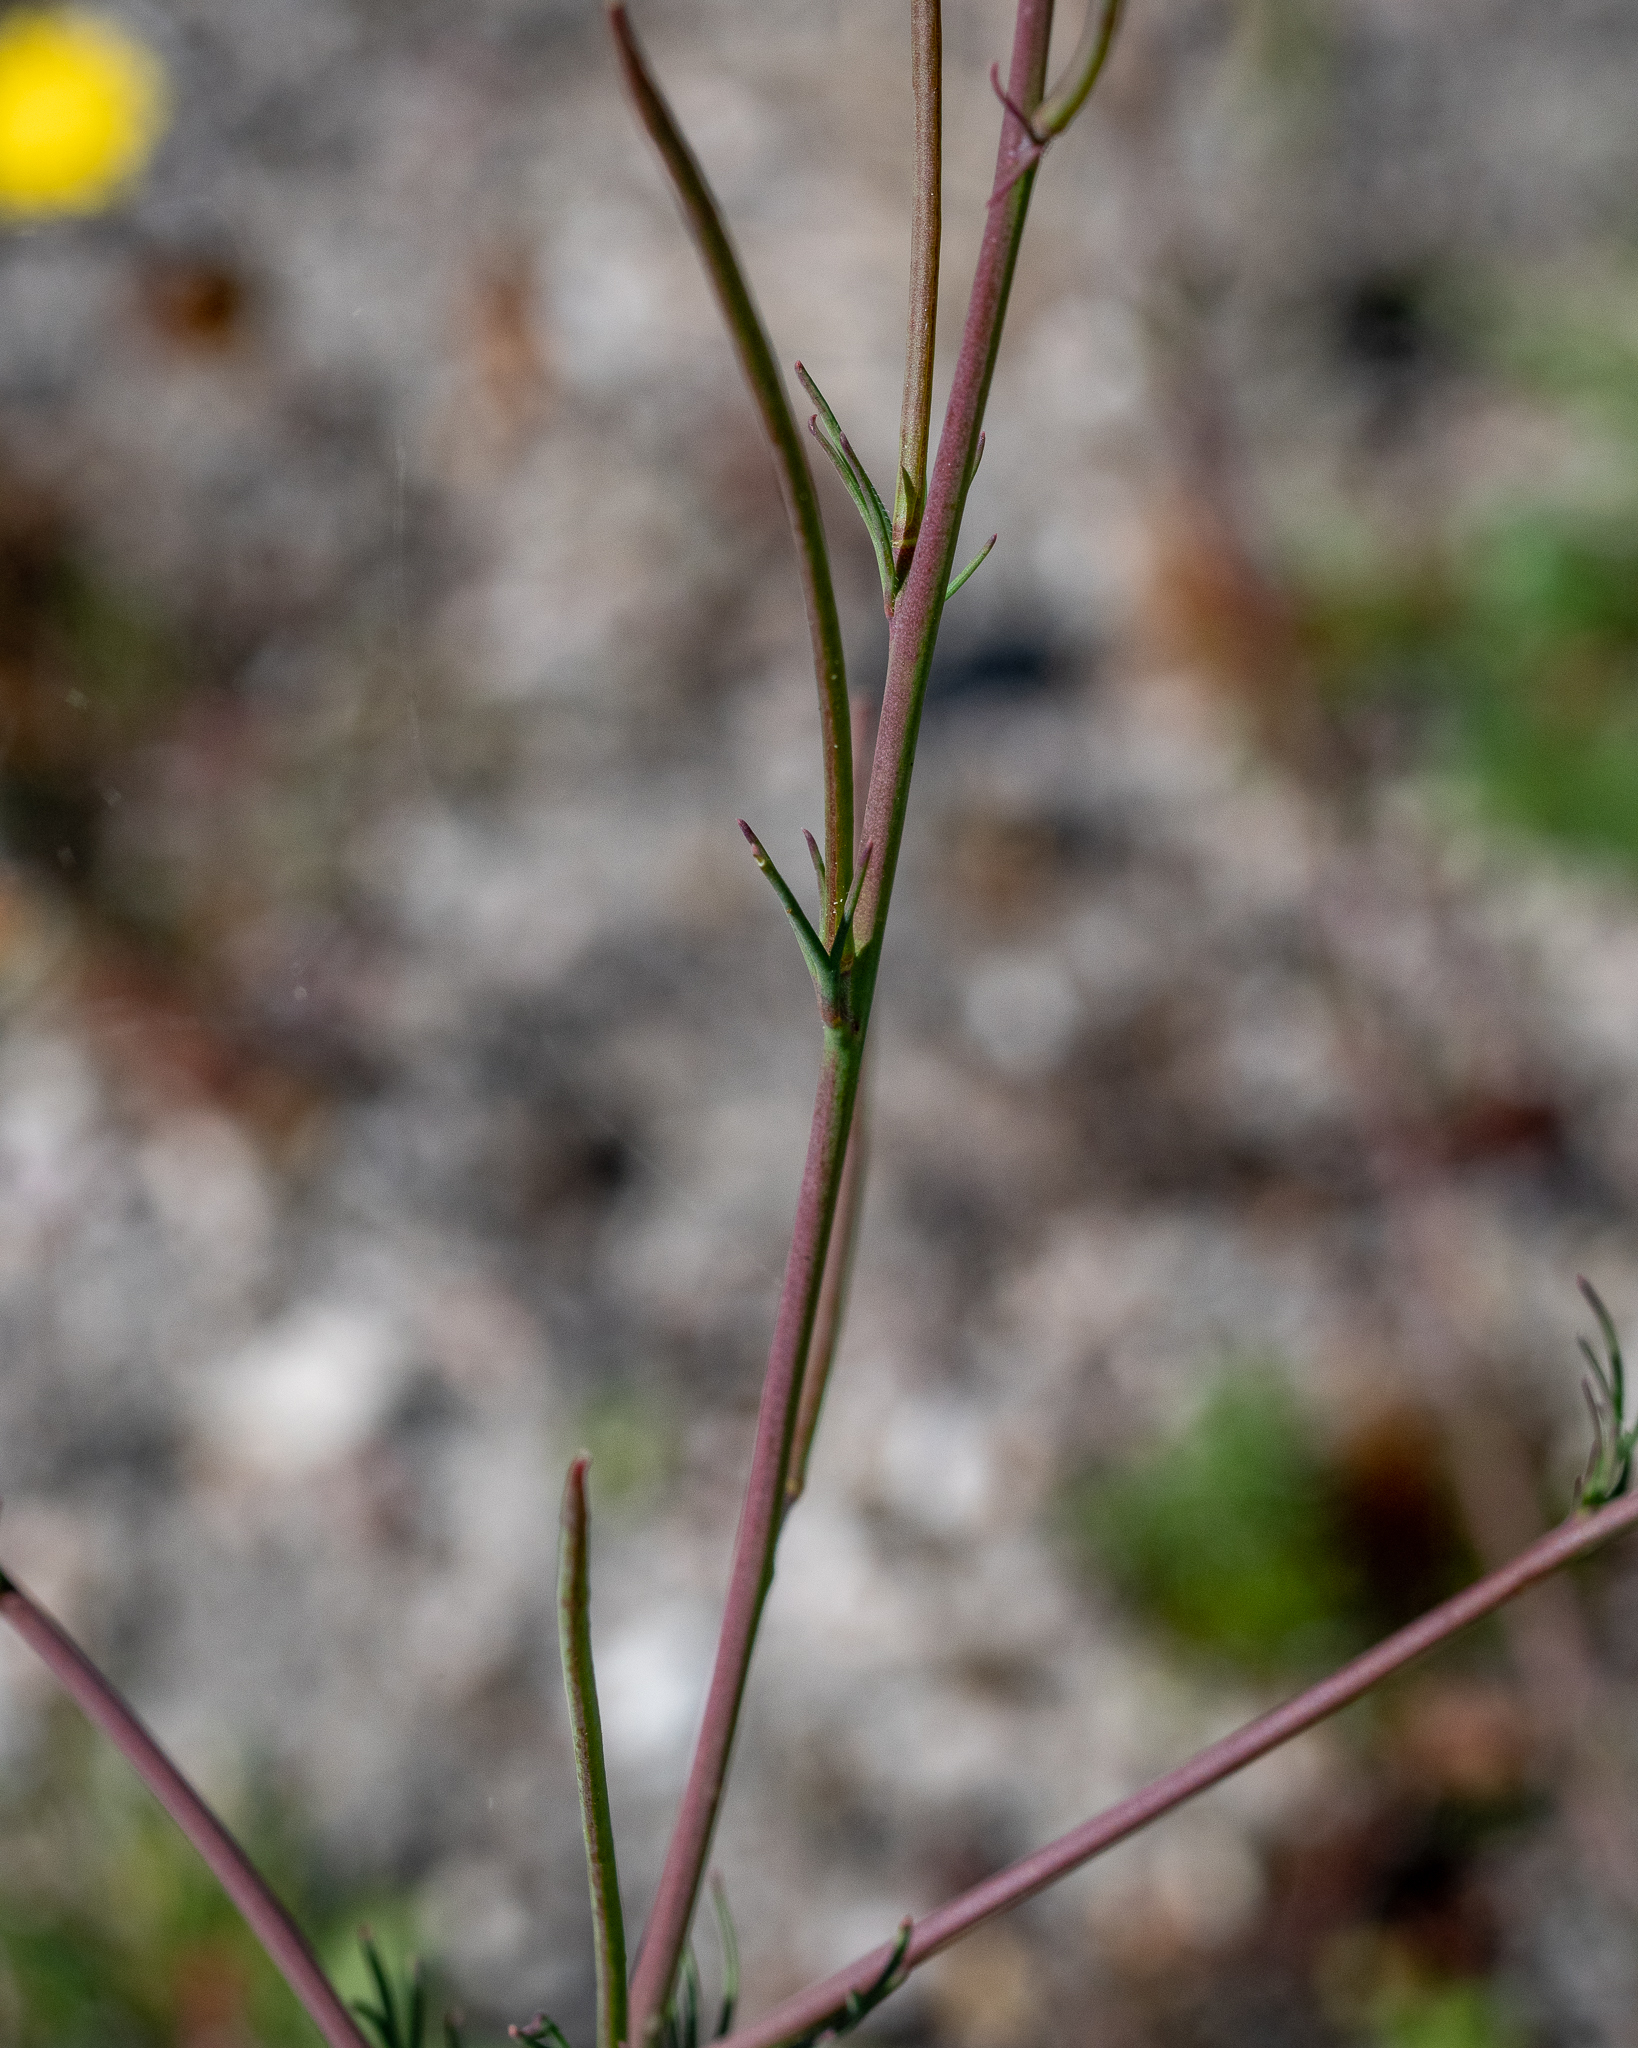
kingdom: Plantae
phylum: Tracheophyta
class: Magnoliopsida
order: Brassicales
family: Brassicaceae
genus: Heliophila
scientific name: Heliophila digitata
